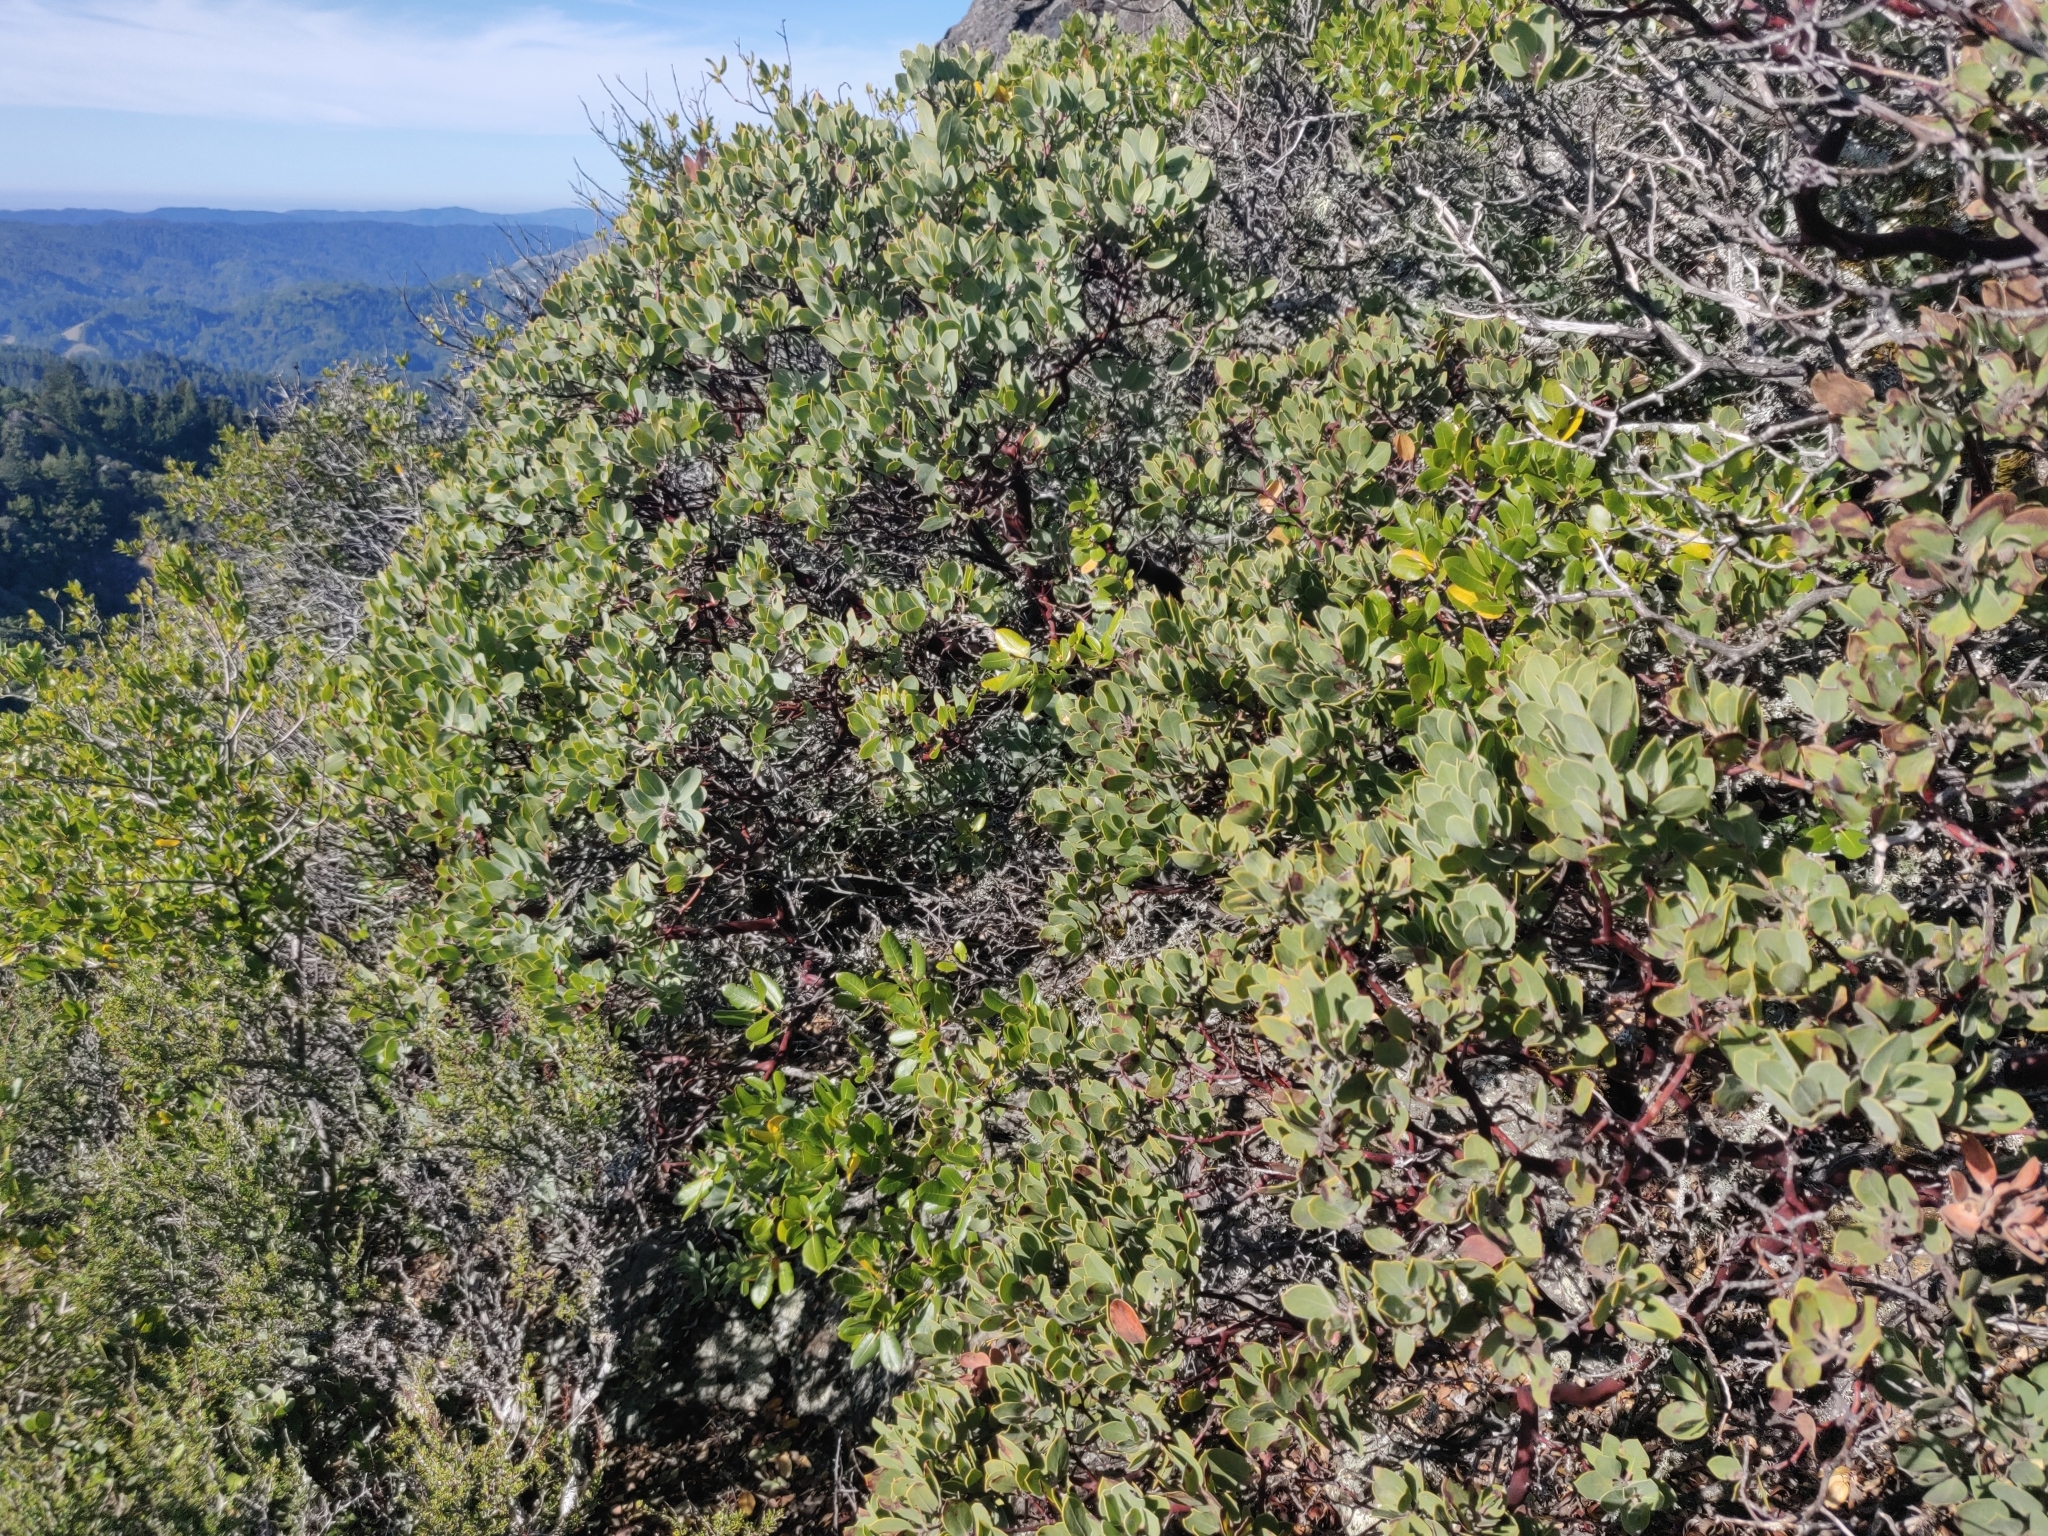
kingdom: Plantae
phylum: Tracheophyta
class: Magnoliopsida
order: Ericales
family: Ericaceae
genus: Arctostaphylos
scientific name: Arctostaphylos glandulosa
